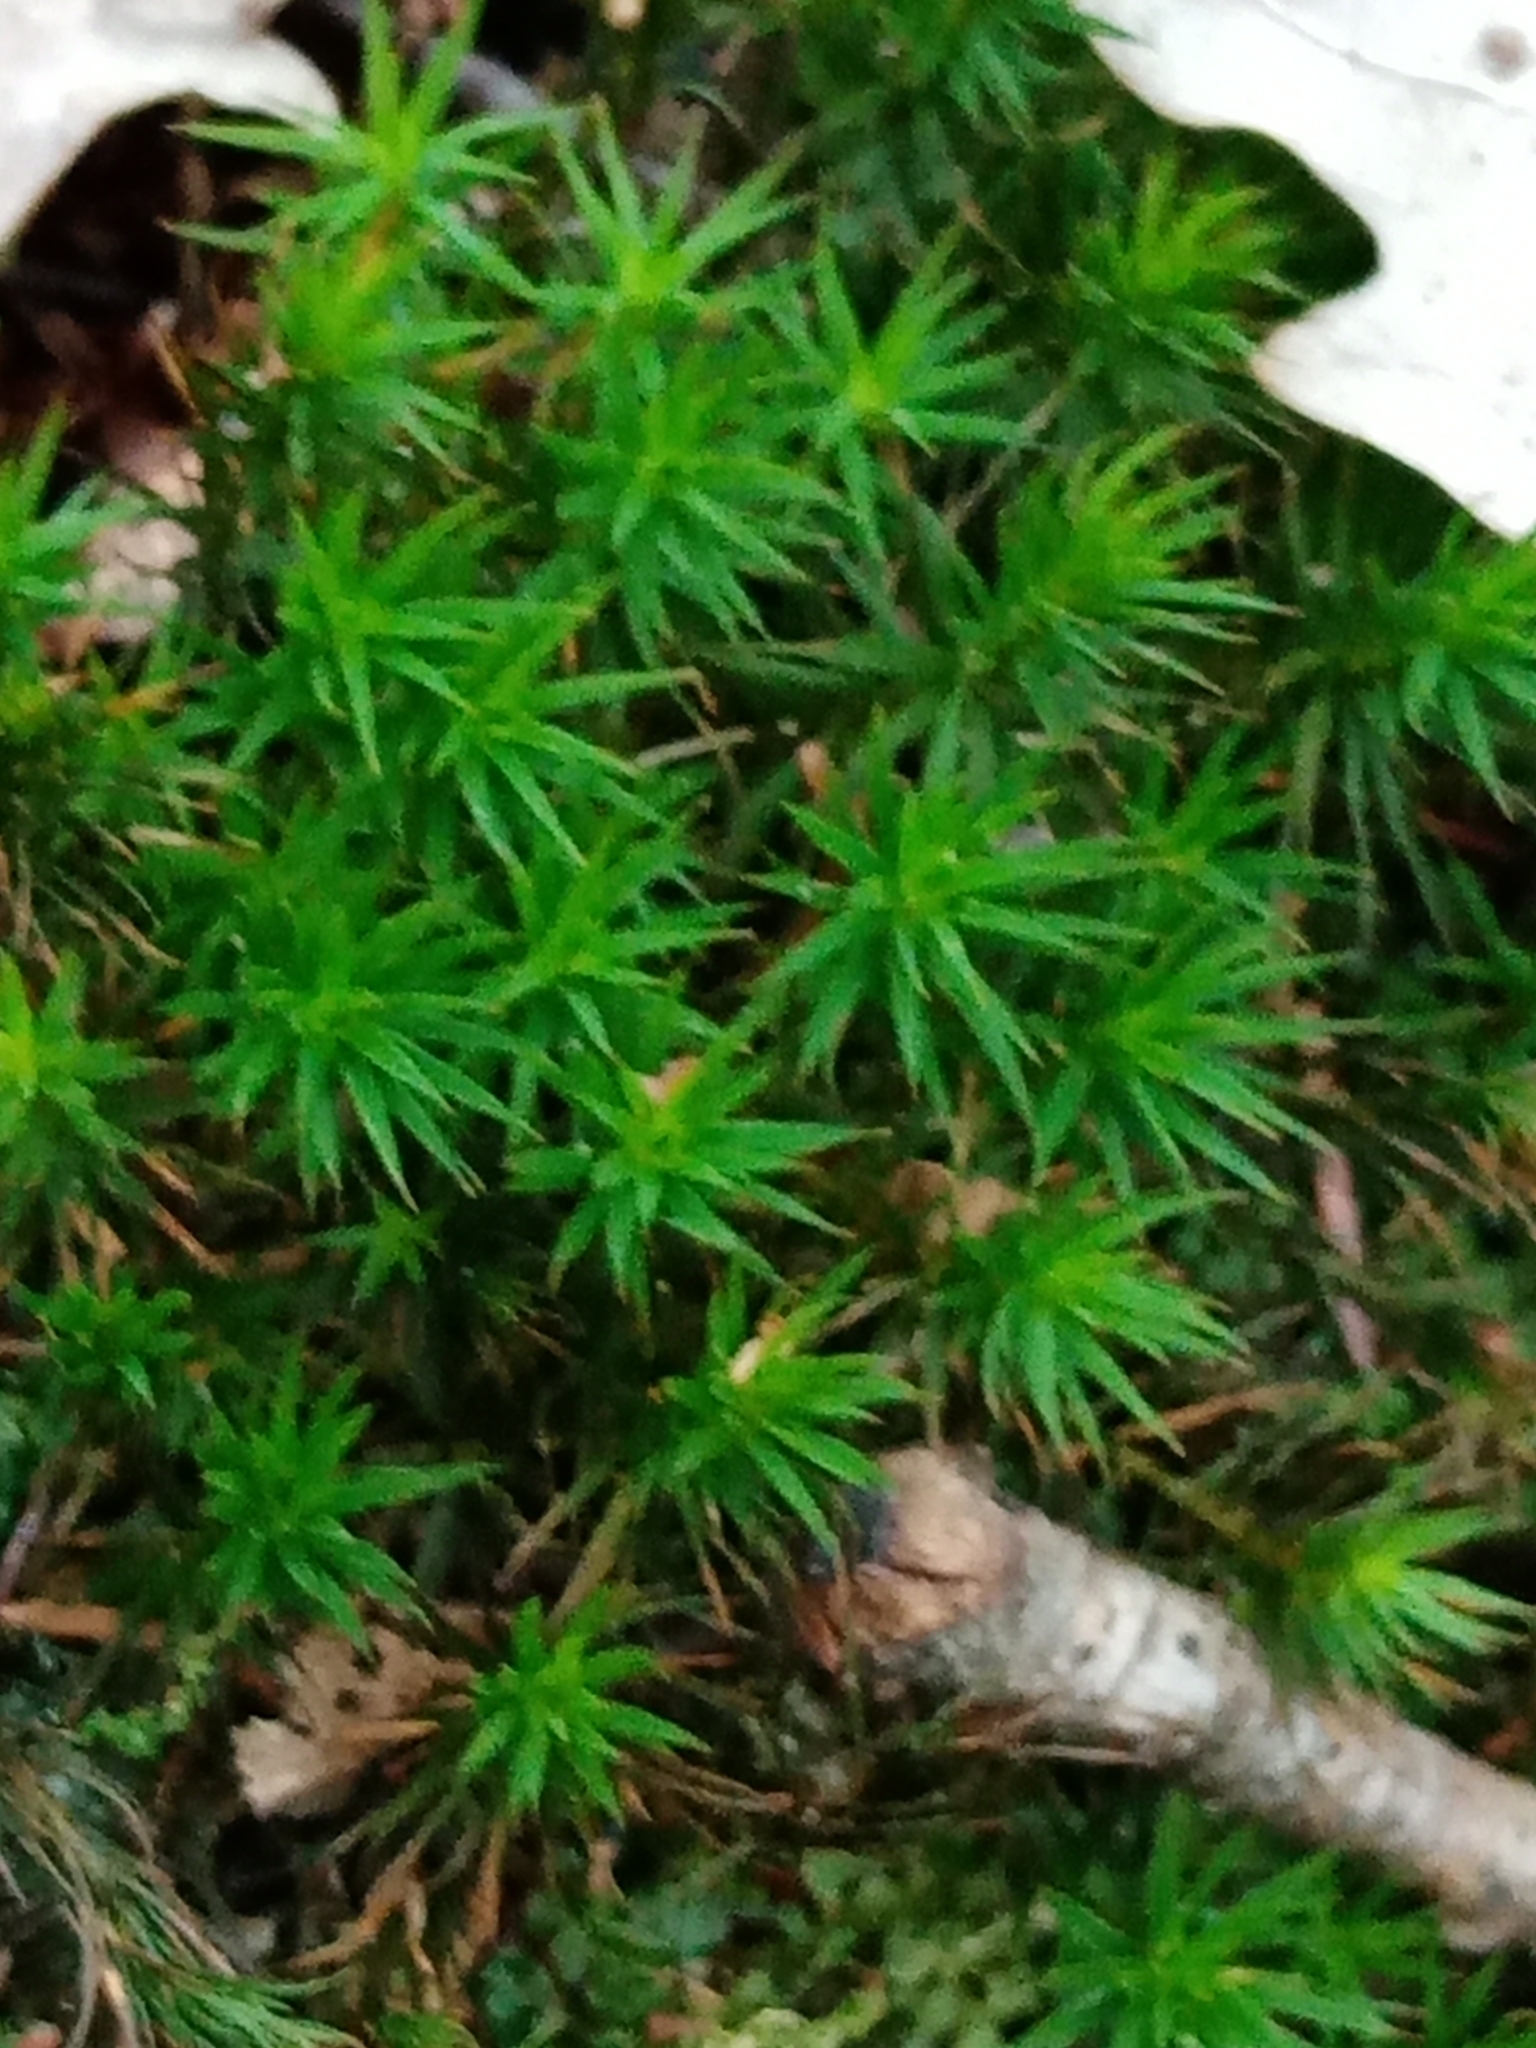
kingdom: Plantae
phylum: Bryophyta
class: Polytrichopsida
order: Polytrichales
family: Polytrichaceae
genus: Polytrichum
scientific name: Polytrichum formosum
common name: Bank haircap moss
